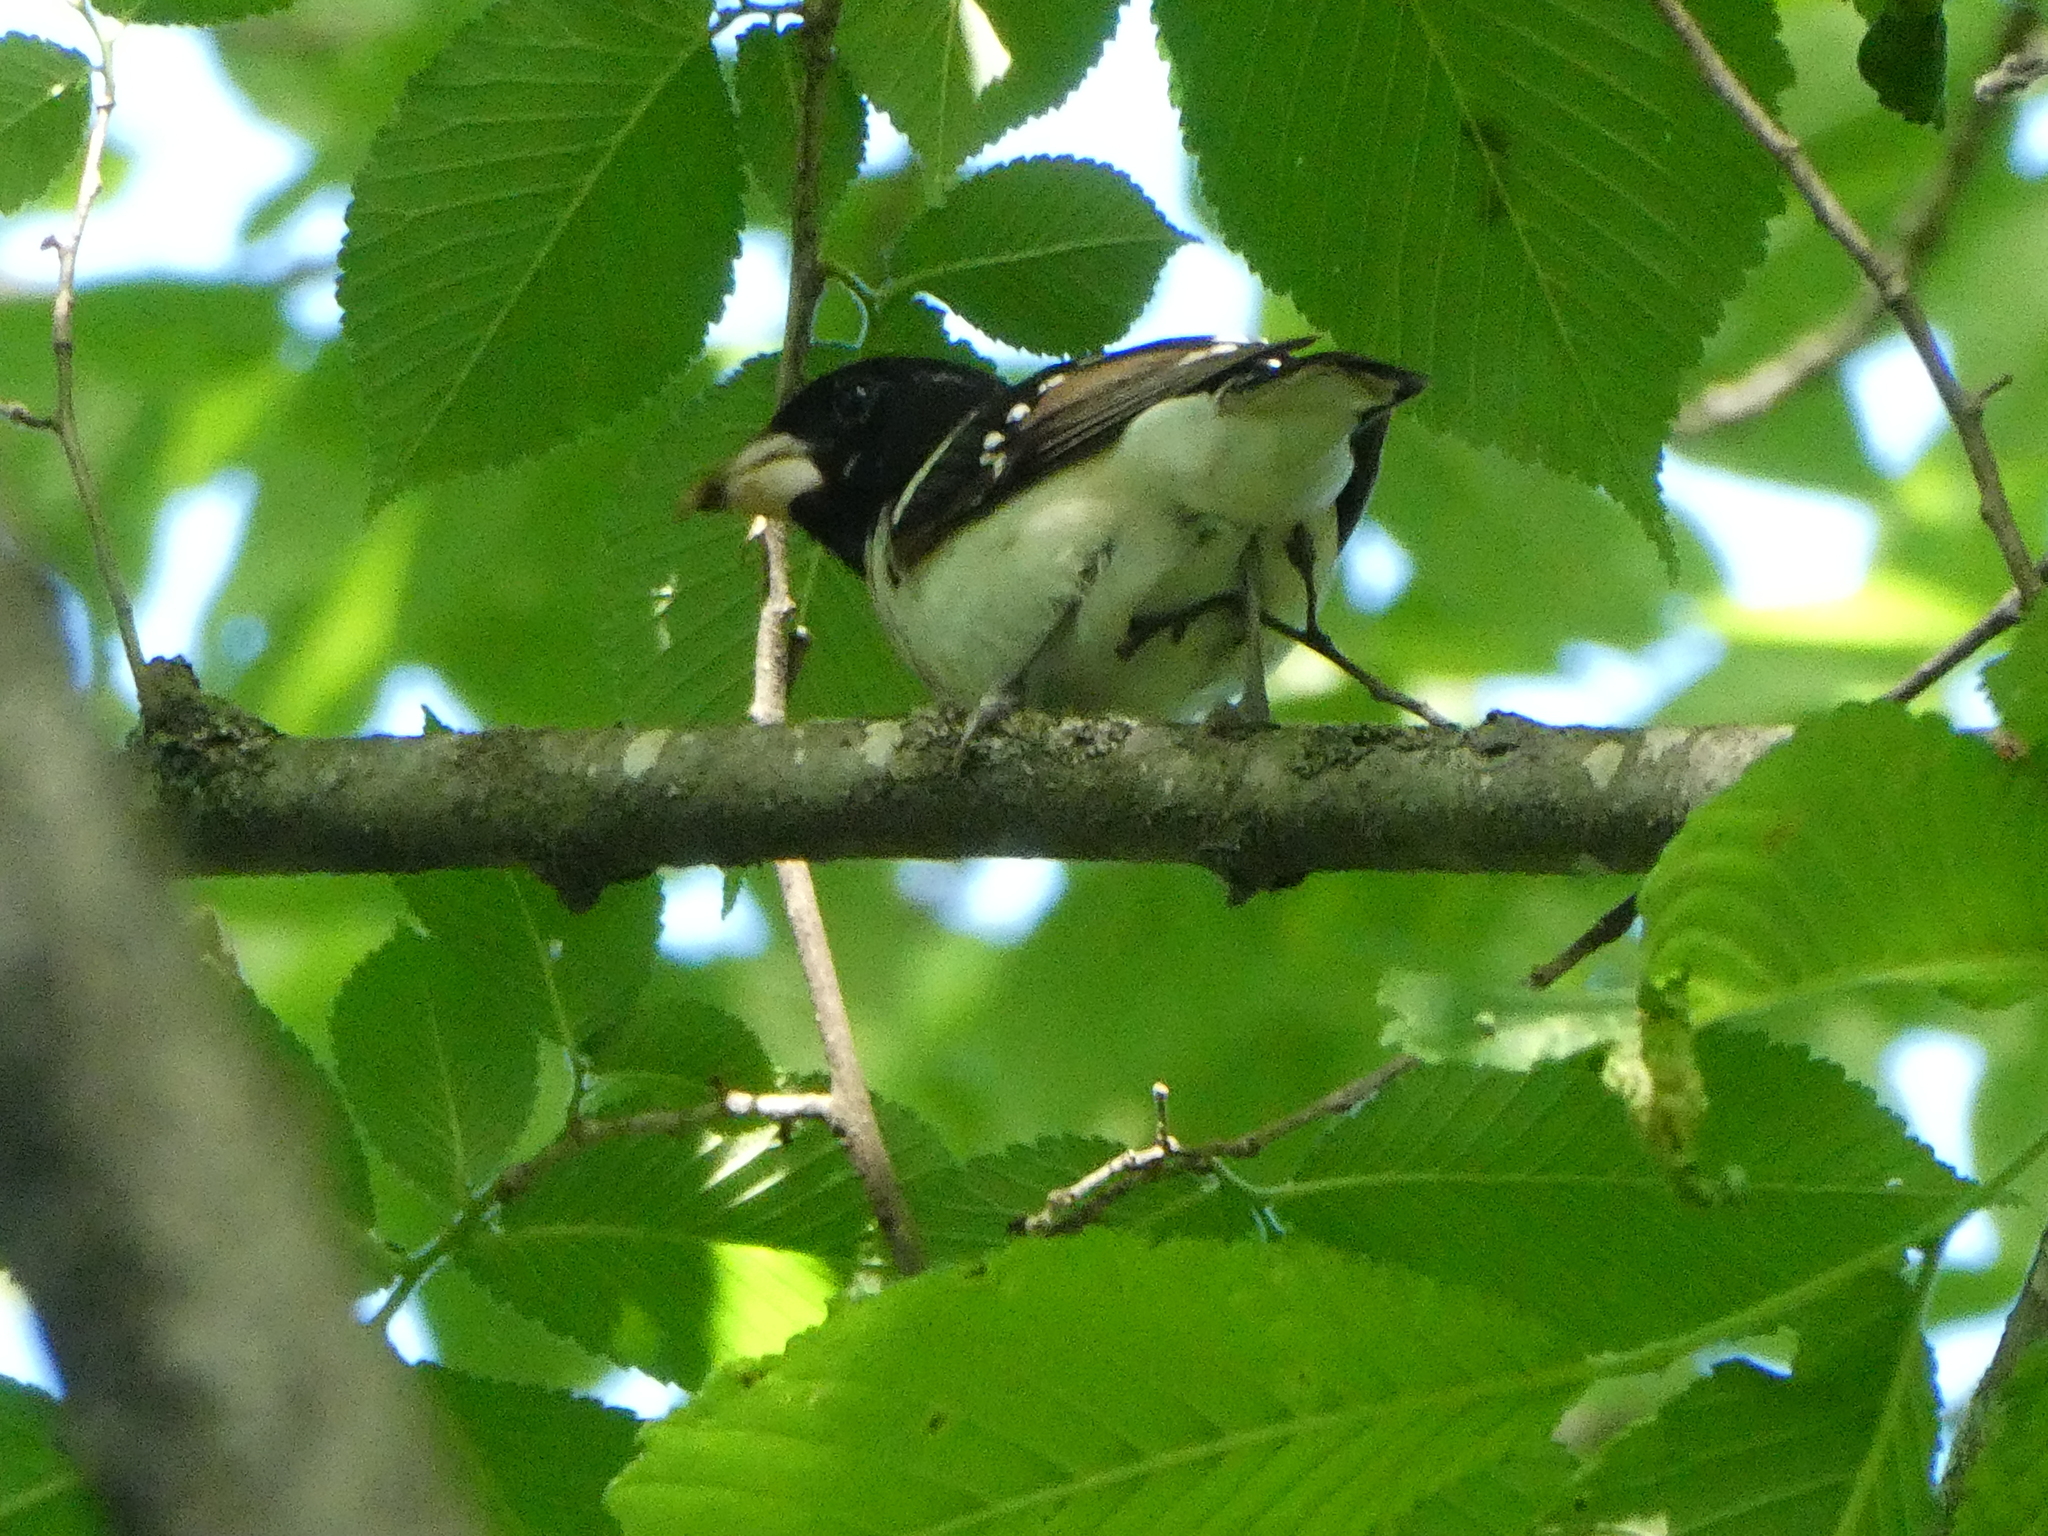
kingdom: Animalia
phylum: Chordata
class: Aves
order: Passeriformes
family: Cardinalidae
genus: Pheucticus
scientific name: Pheucticus ludovicianus
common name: Rose-breasted grosbeak
